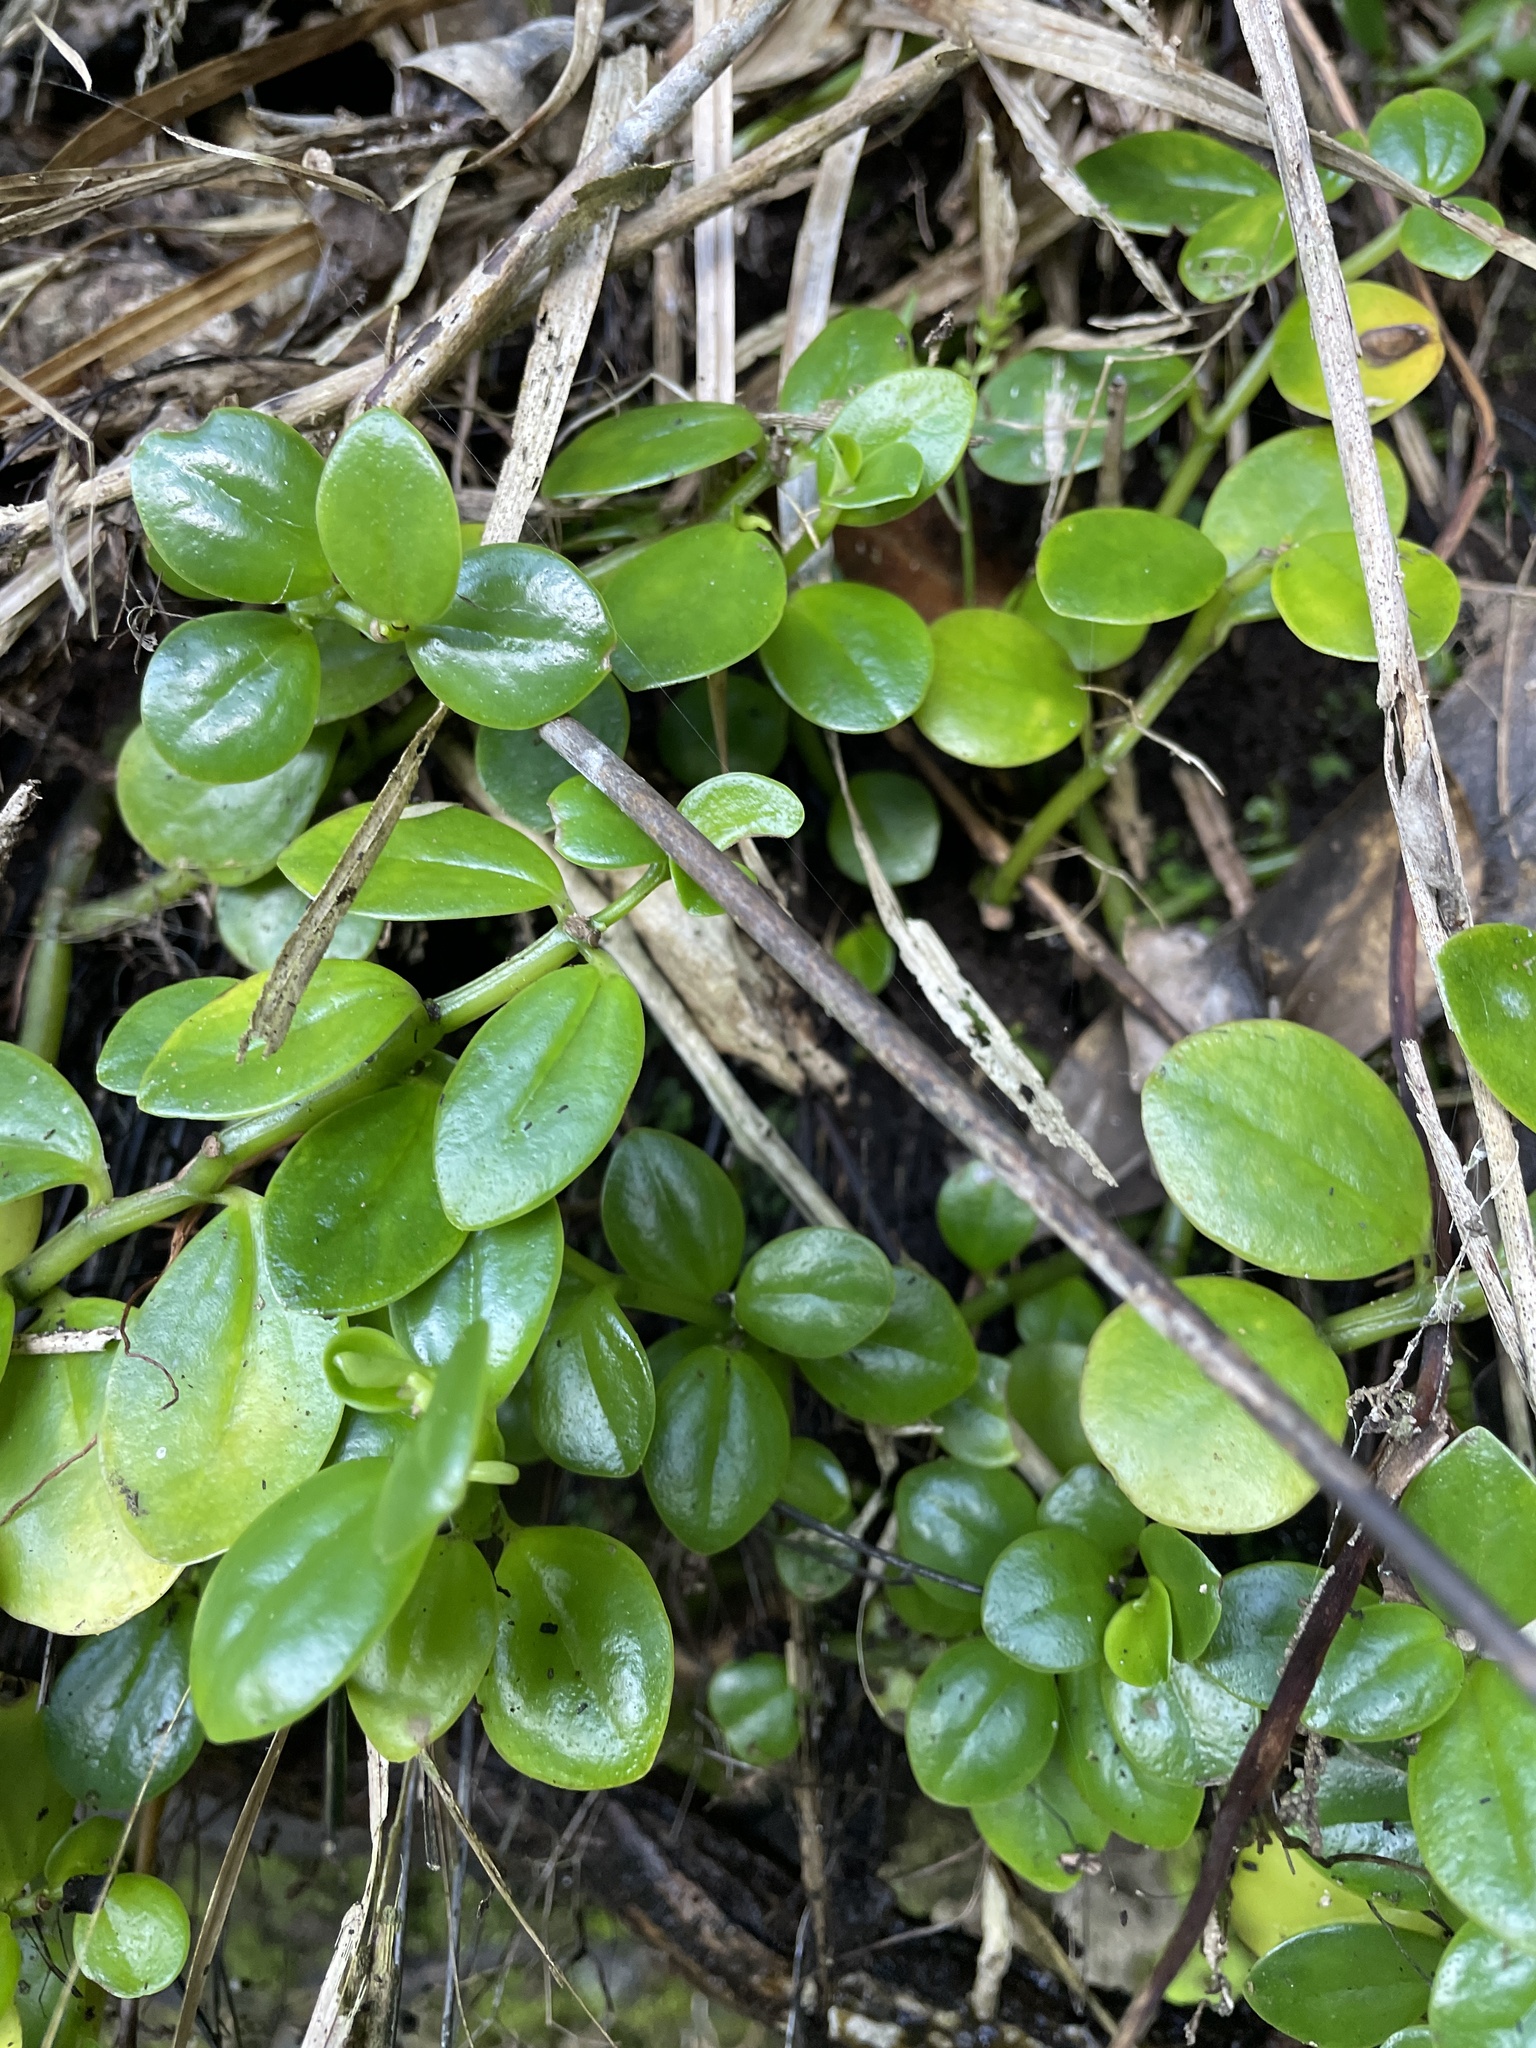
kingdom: Plantae
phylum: Tracheophyta
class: Magnoliopsida
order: Piperales
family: Piperaceae
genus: Peperomia
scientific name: Peperomia urvilleana
